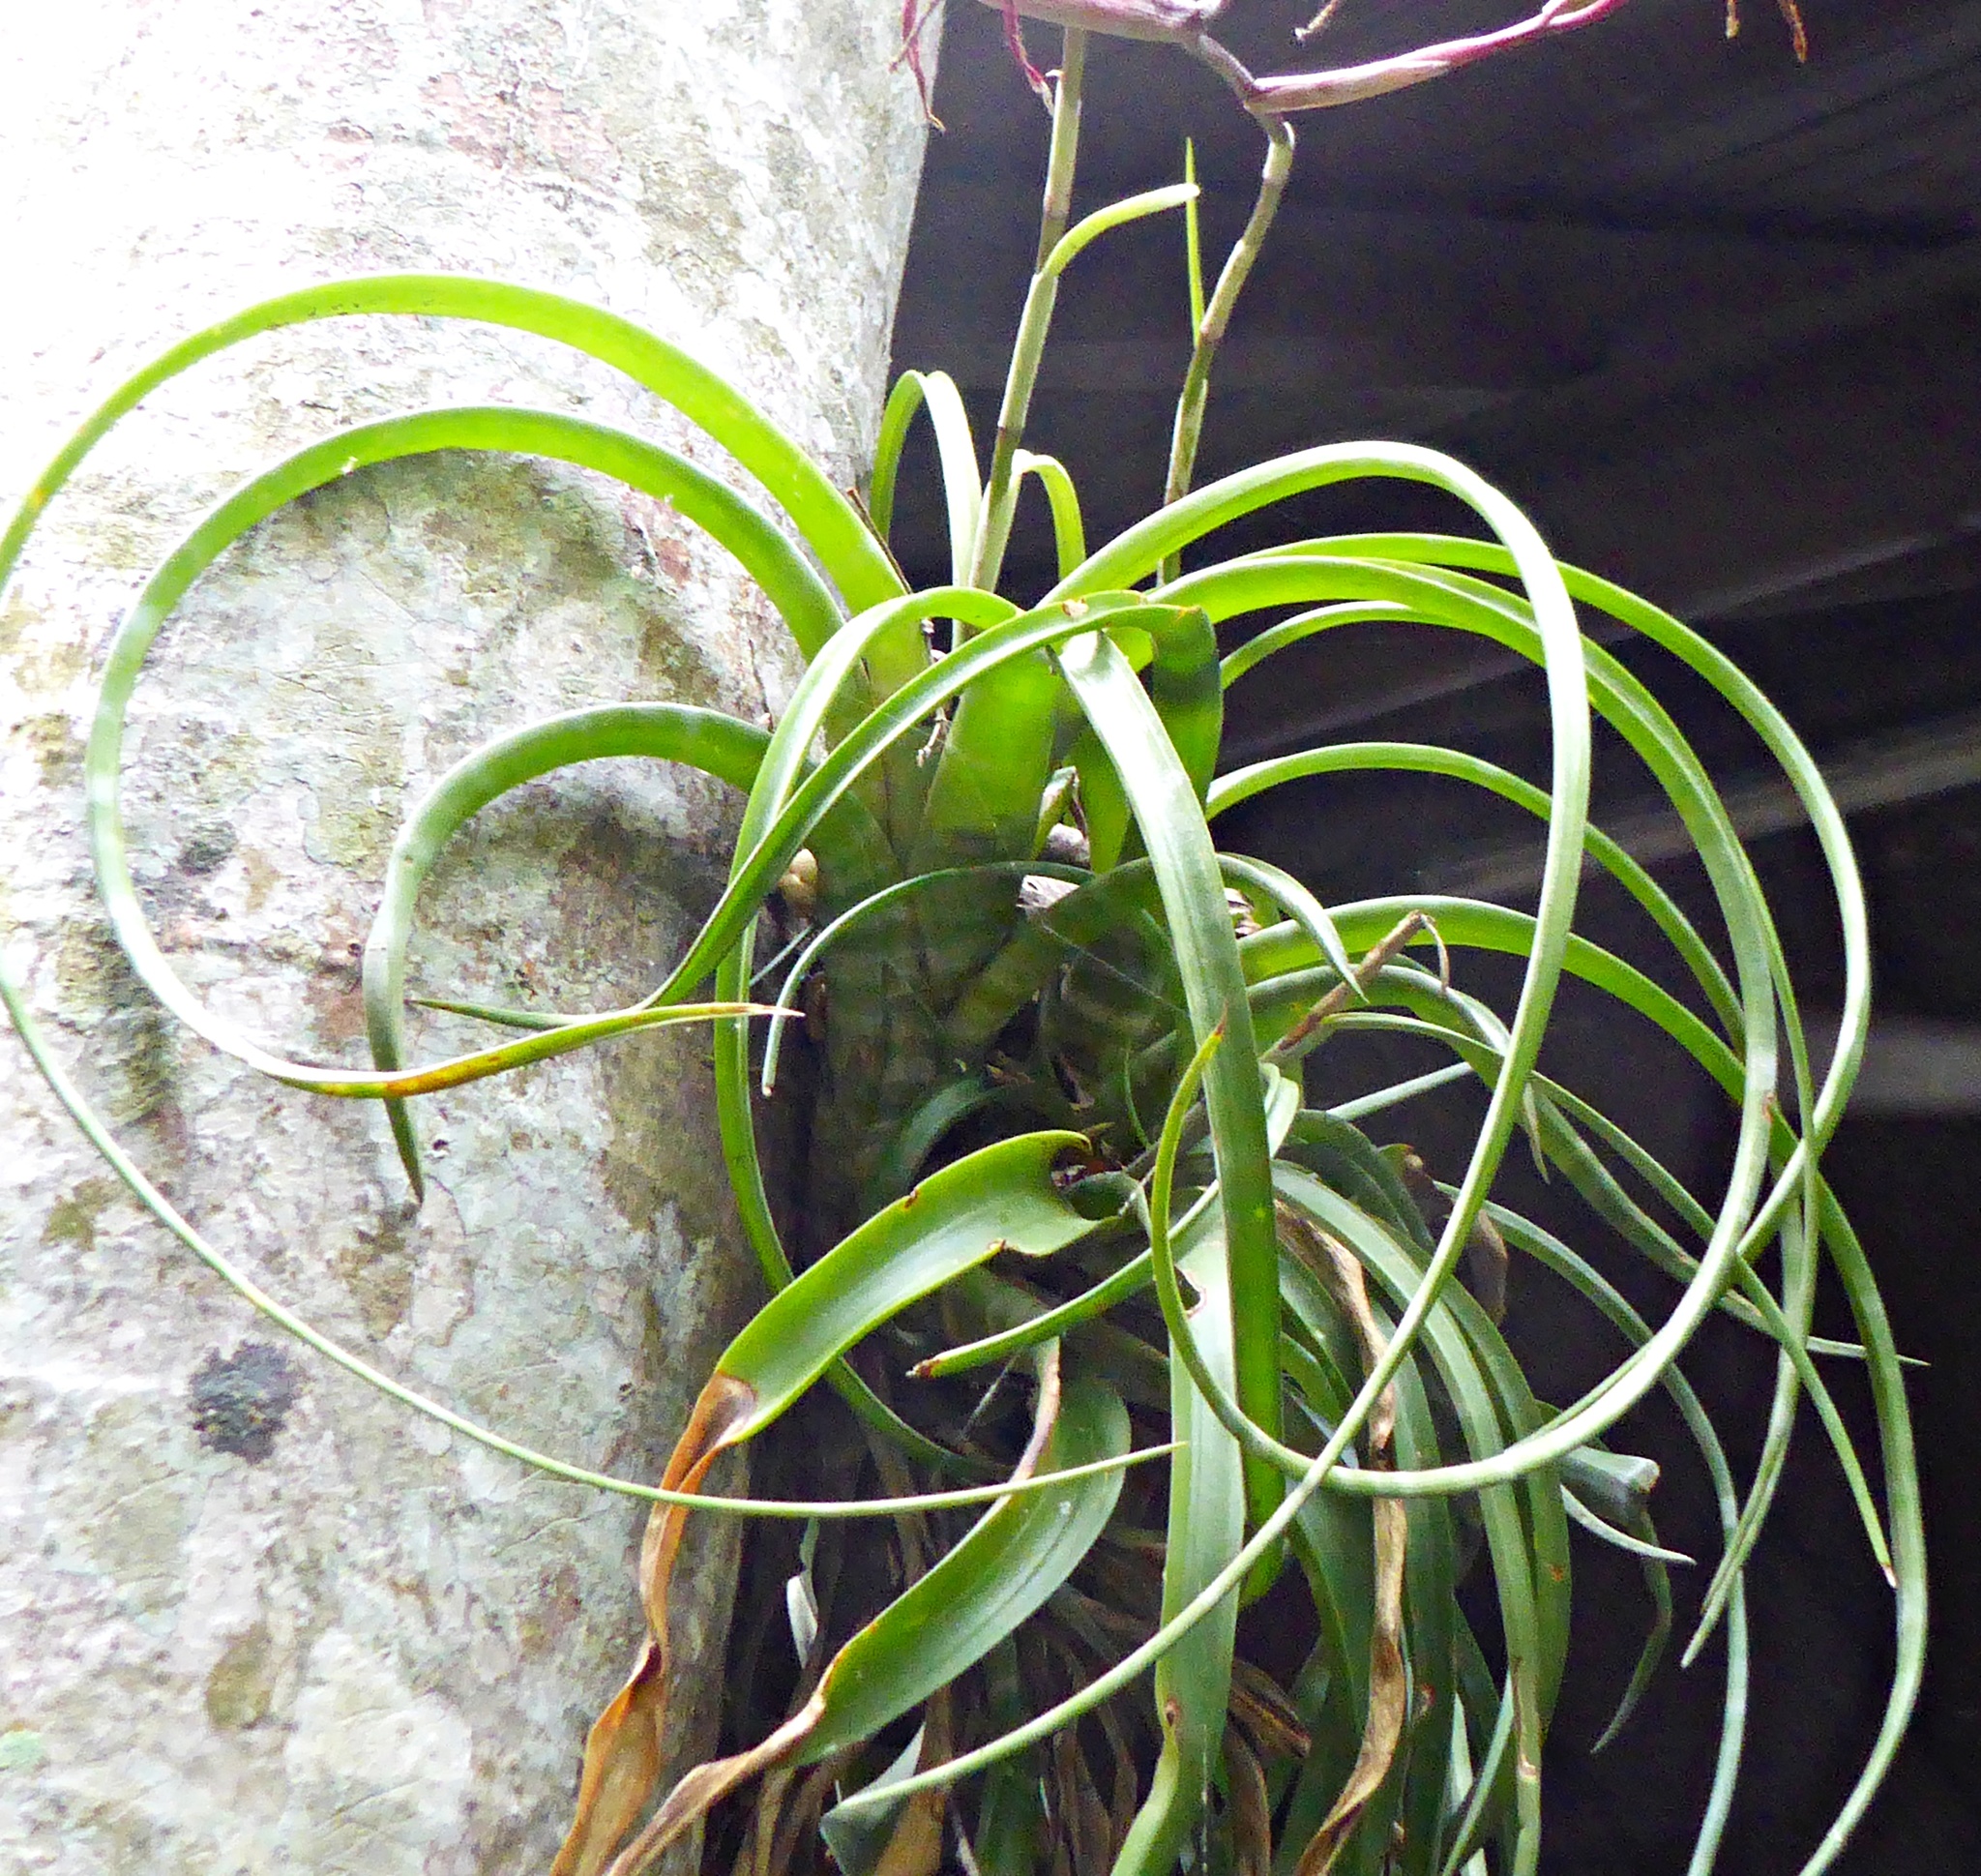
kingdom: Plantae
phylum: Tracheophyta
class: Liliopsida
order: Poales
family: Bromeliaceae
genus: Tillandsia
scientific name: Tillandsia flexuosa
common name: Banded airplant
